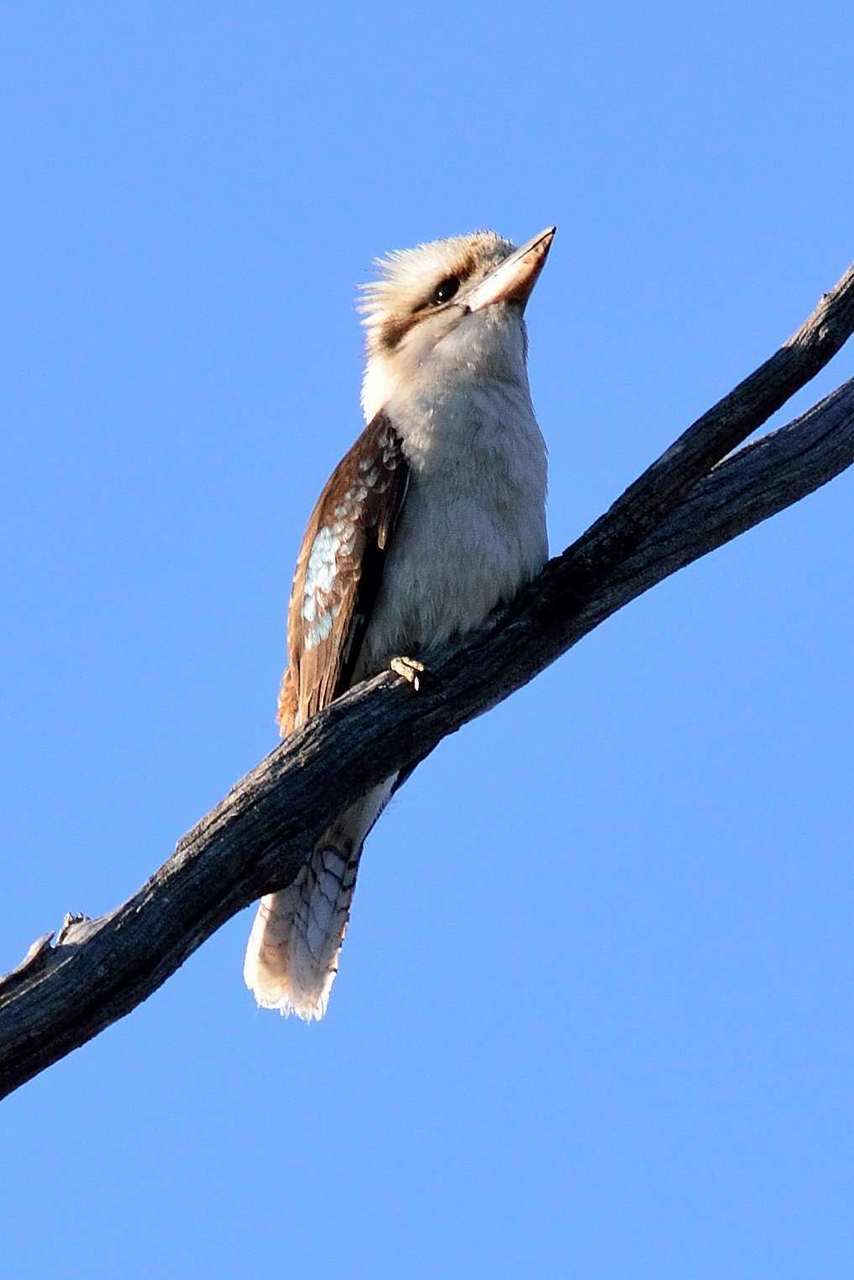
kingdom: Animalia
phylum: Chordata
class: Aves
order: Coraciiformes
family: Alcedinidae
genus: Dacelo
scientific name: Dacelo novaeguineae
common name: Laughing kookaburra
